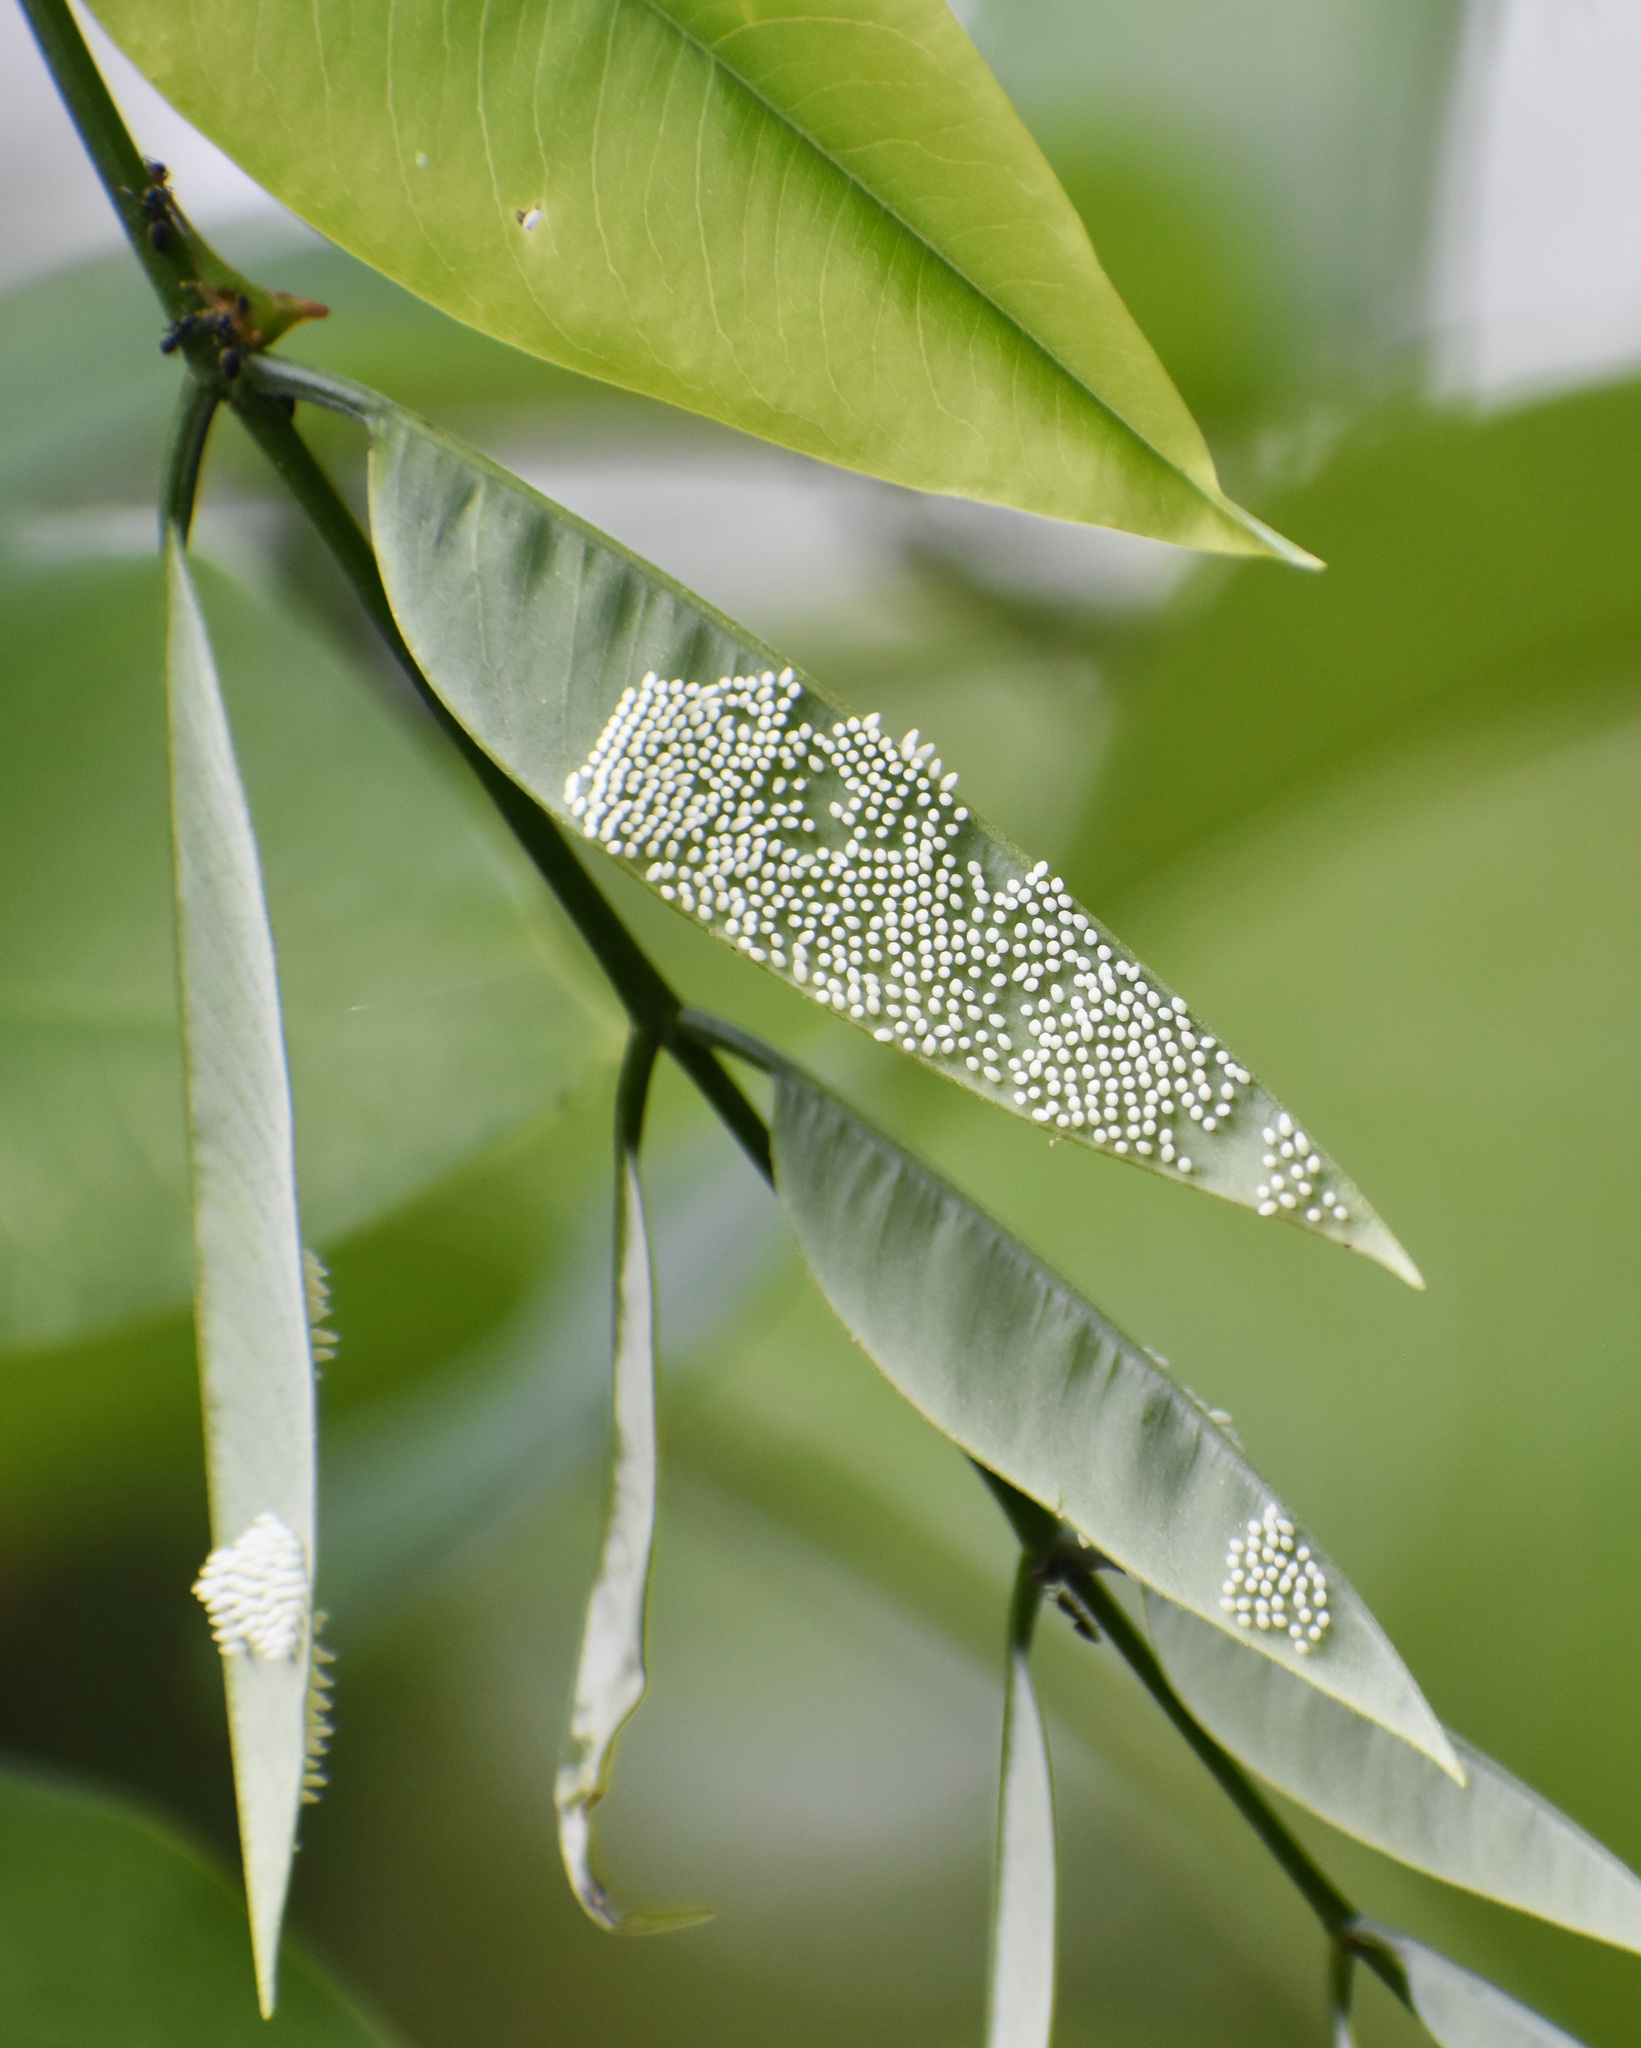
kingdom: Animalia
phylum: Arthropoda
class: Insecta
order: Lepidoptera
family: Pieridae
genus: Eurema
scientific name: Eurema blanda
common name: Three-spot grass yellow
